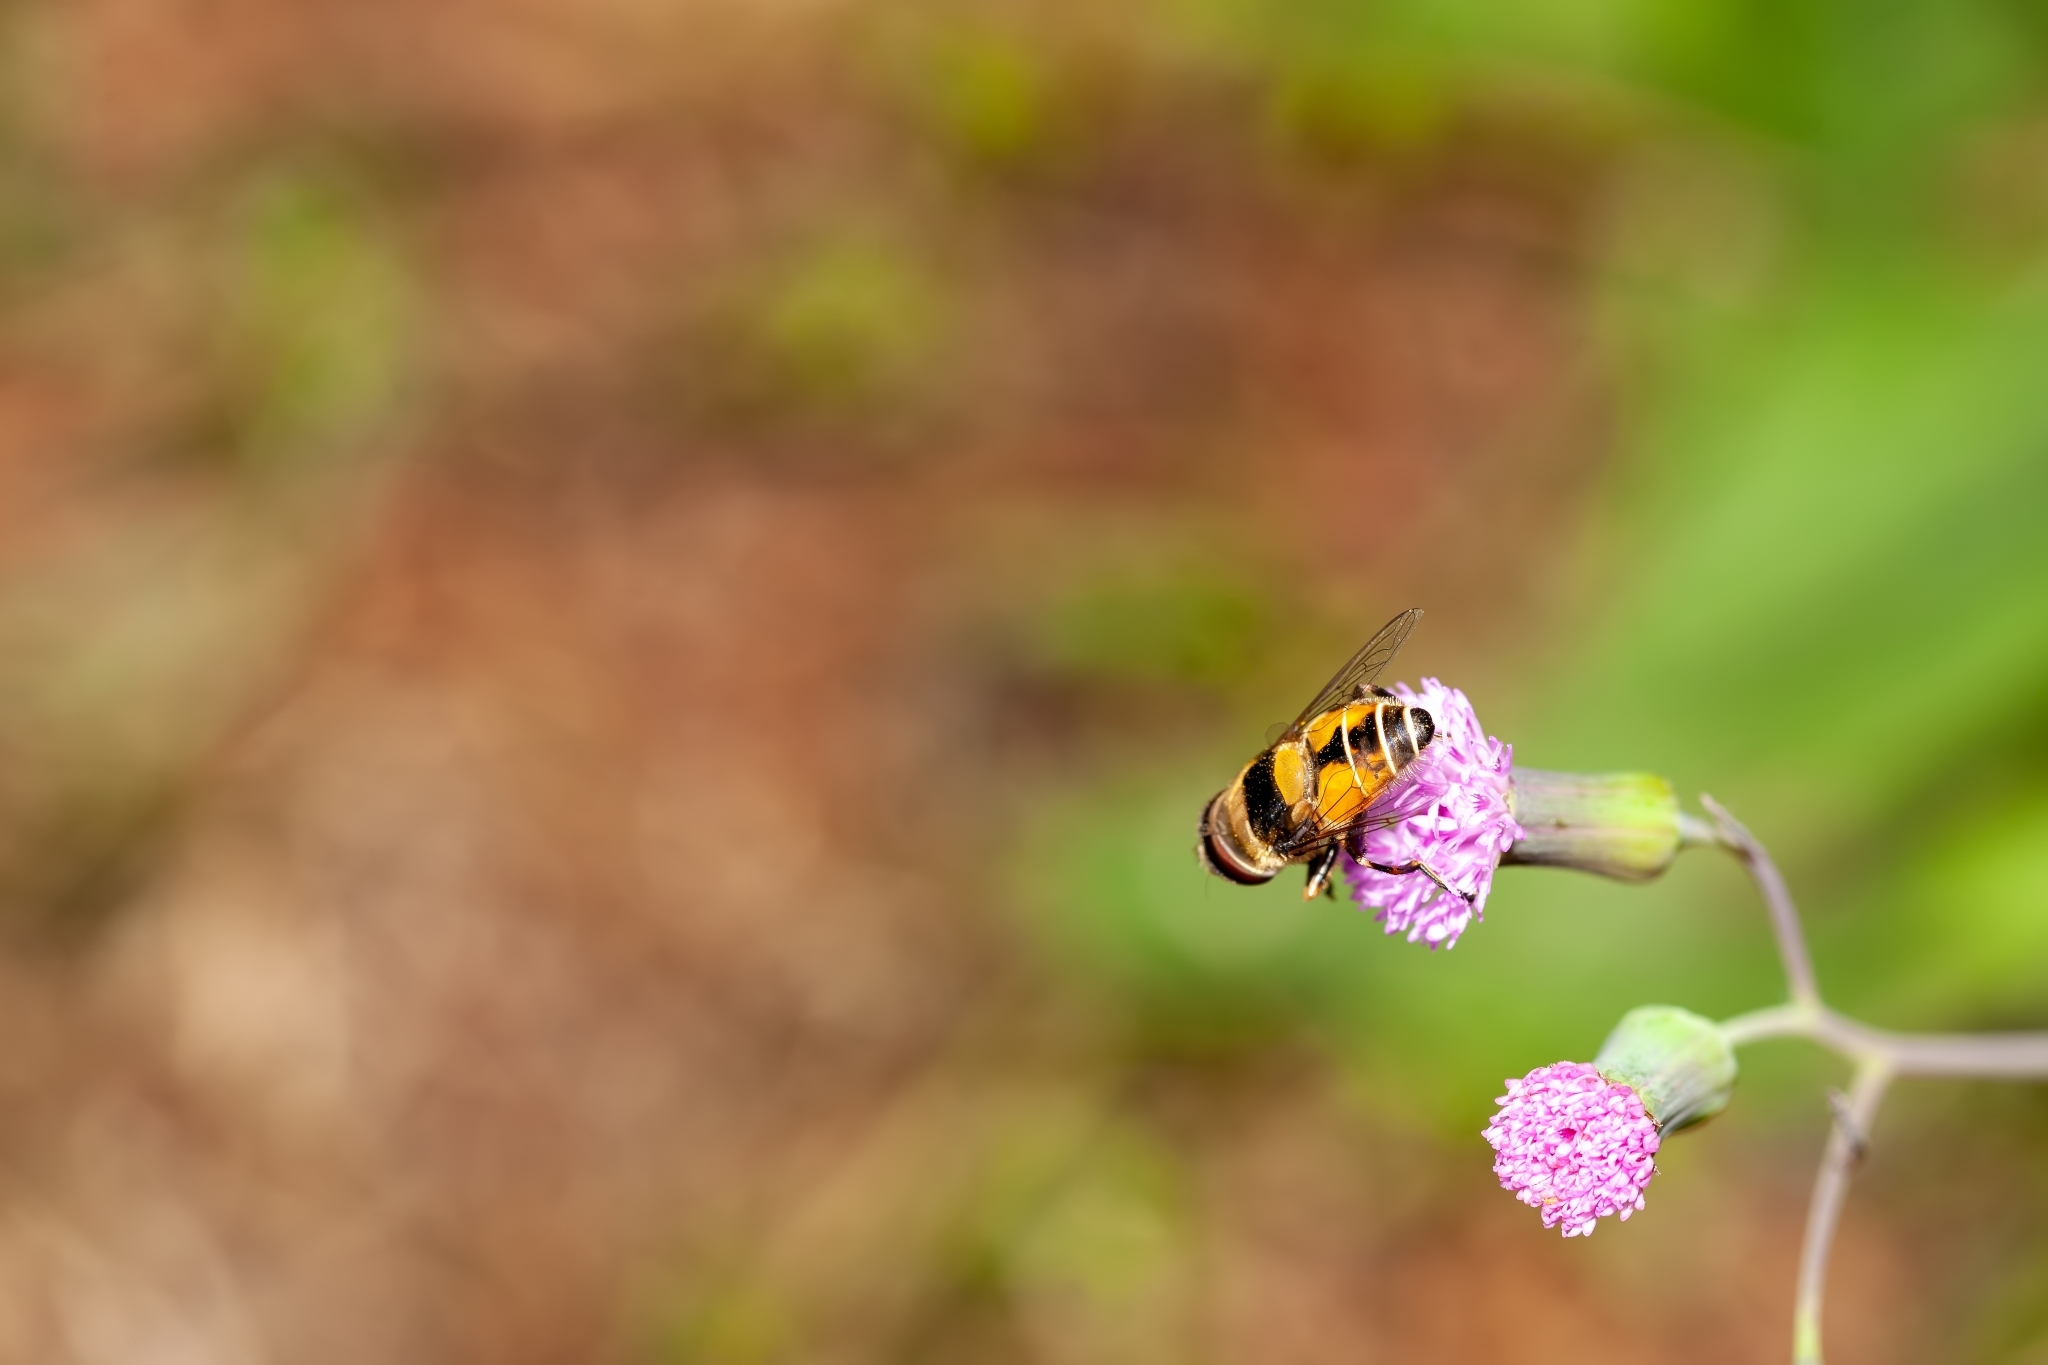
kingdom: Animalia
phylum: Arthropoda
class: Insecta
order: Diptera
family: Syrphidae
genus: Palpada
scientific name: Palpada pusilla
